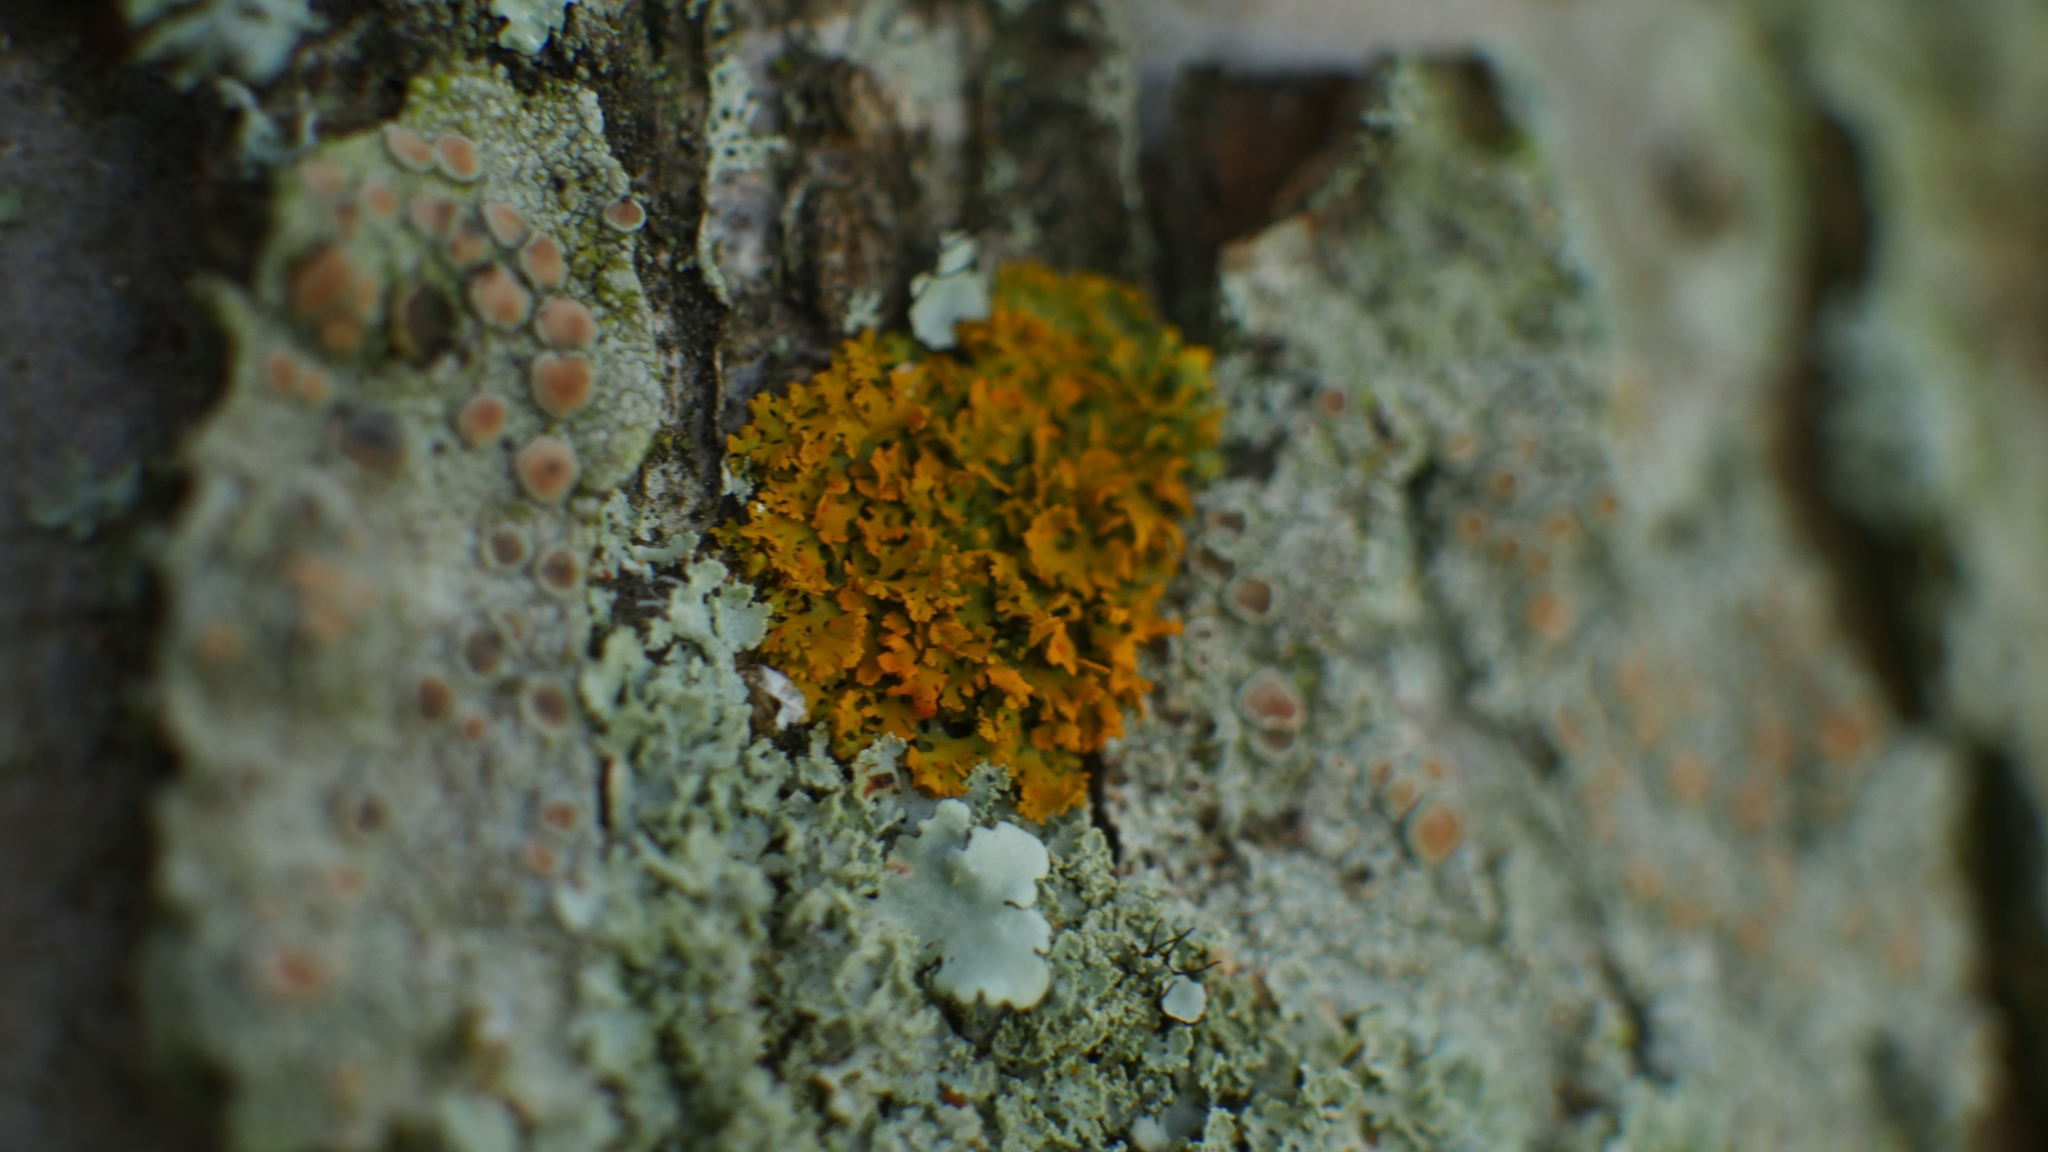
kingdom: Fungi
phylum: Ascomycota
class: Lecanoromycetes
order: Teloschistales
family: Teloschistaceae
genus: Gallowayella
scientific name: Gallowayella weberi
